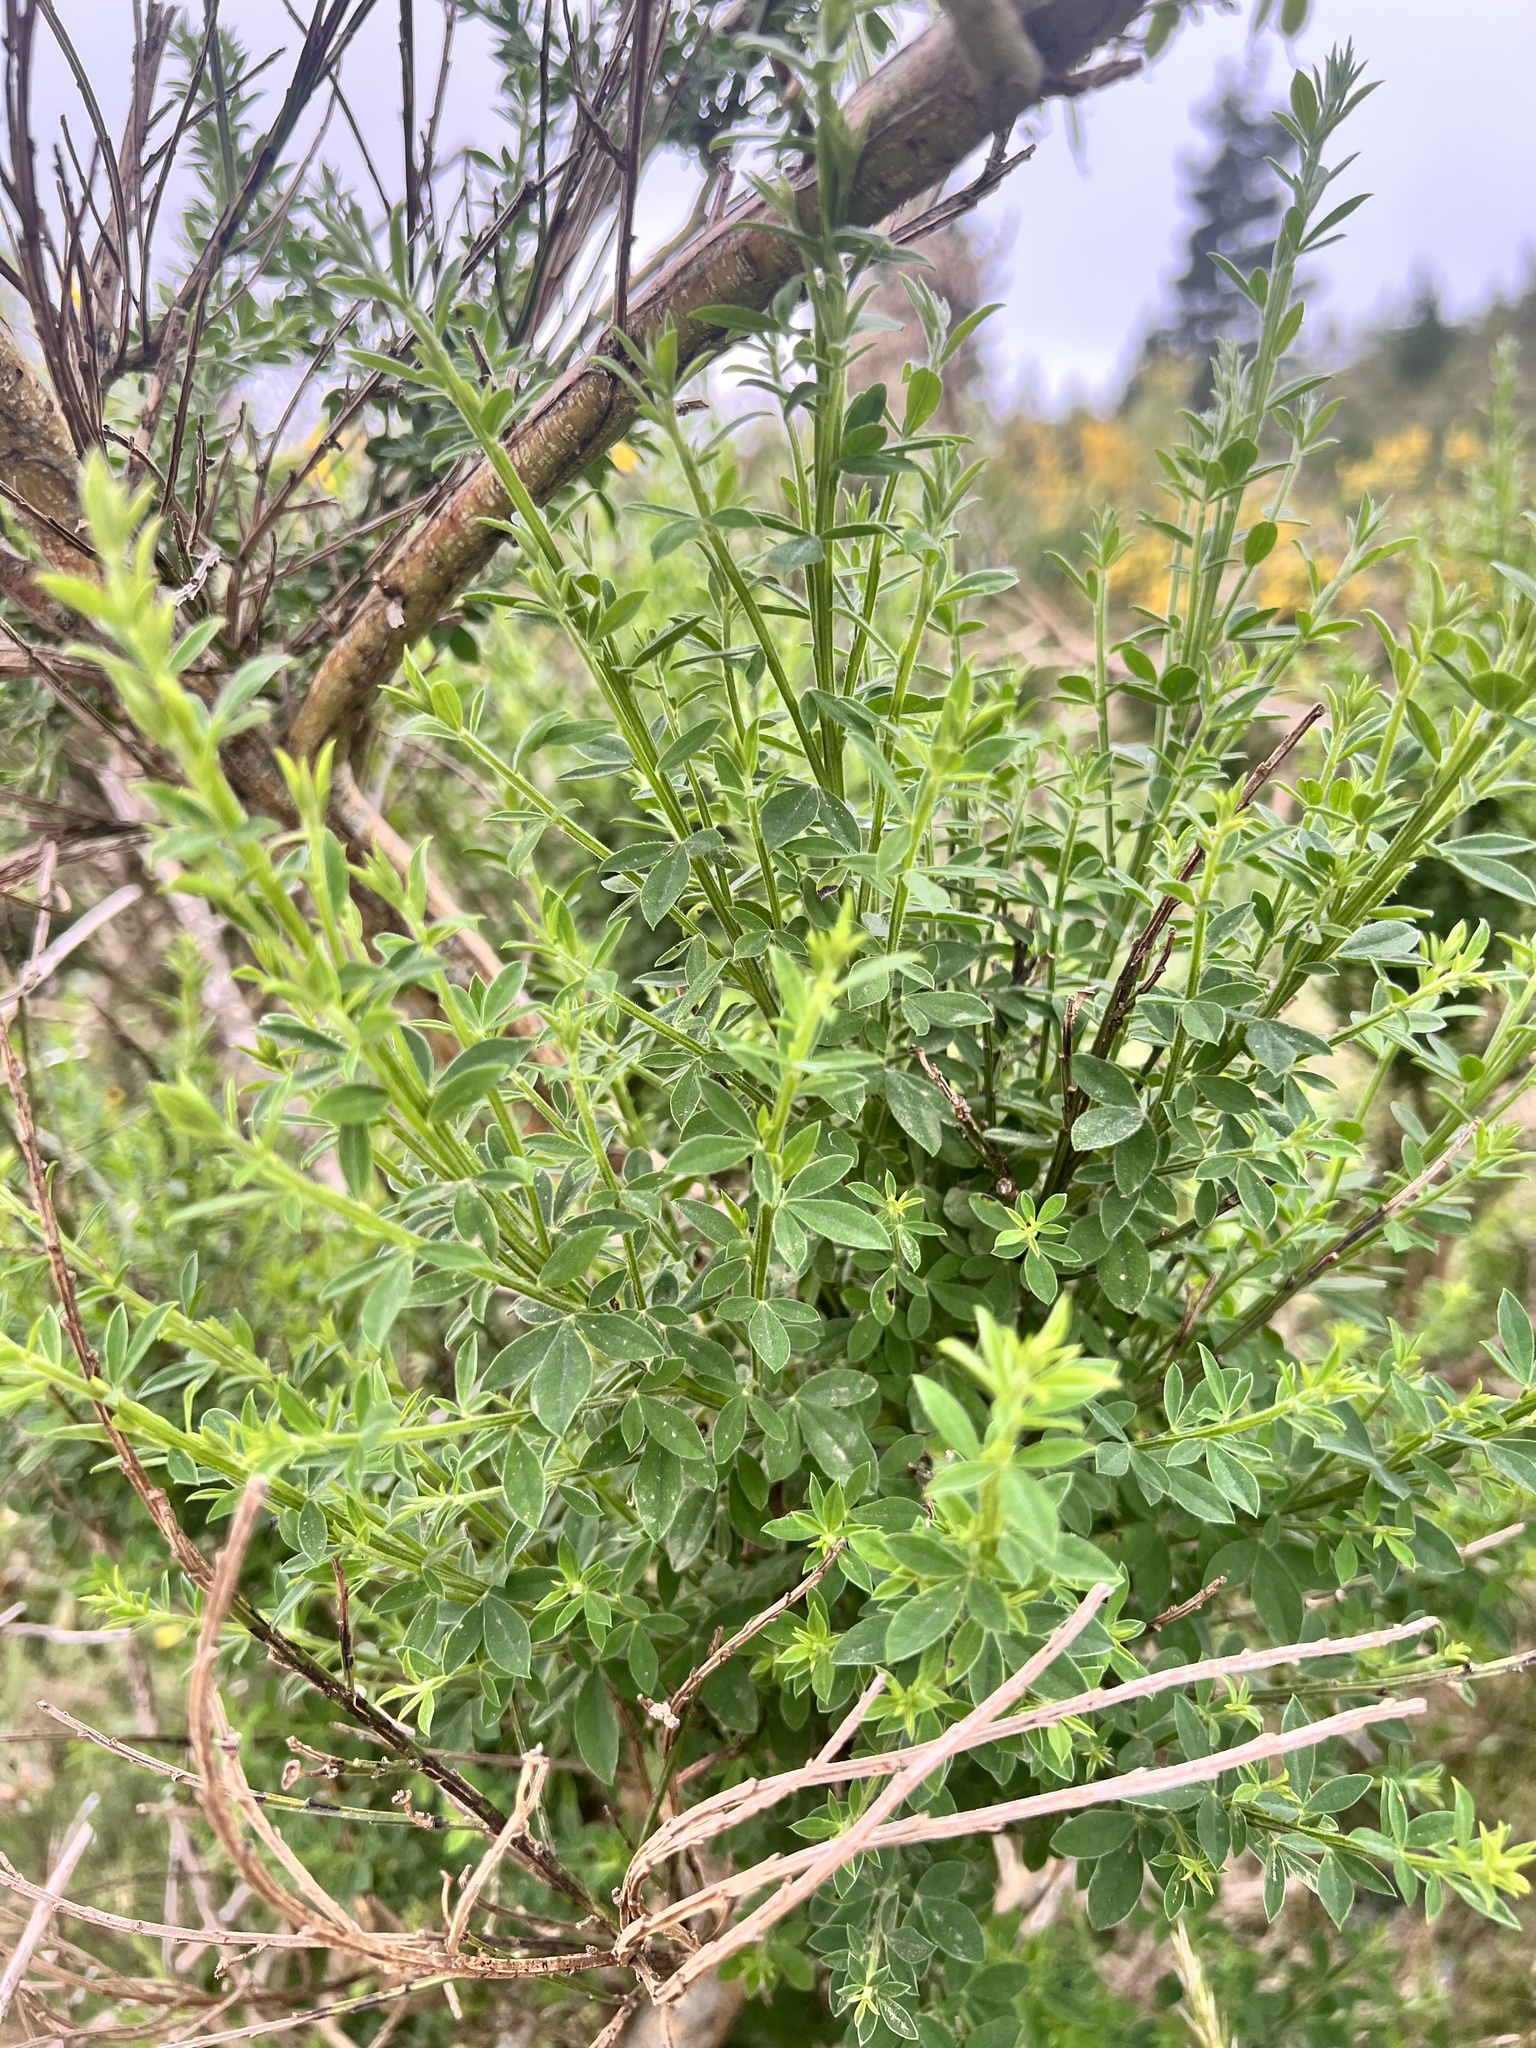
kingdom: Plantae
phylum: Tracheophyta
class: Magnoliopsida
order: Fabales
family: Fabaceae
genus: Cytisus
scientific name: Cytisus scoparius
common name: Scotch broom
